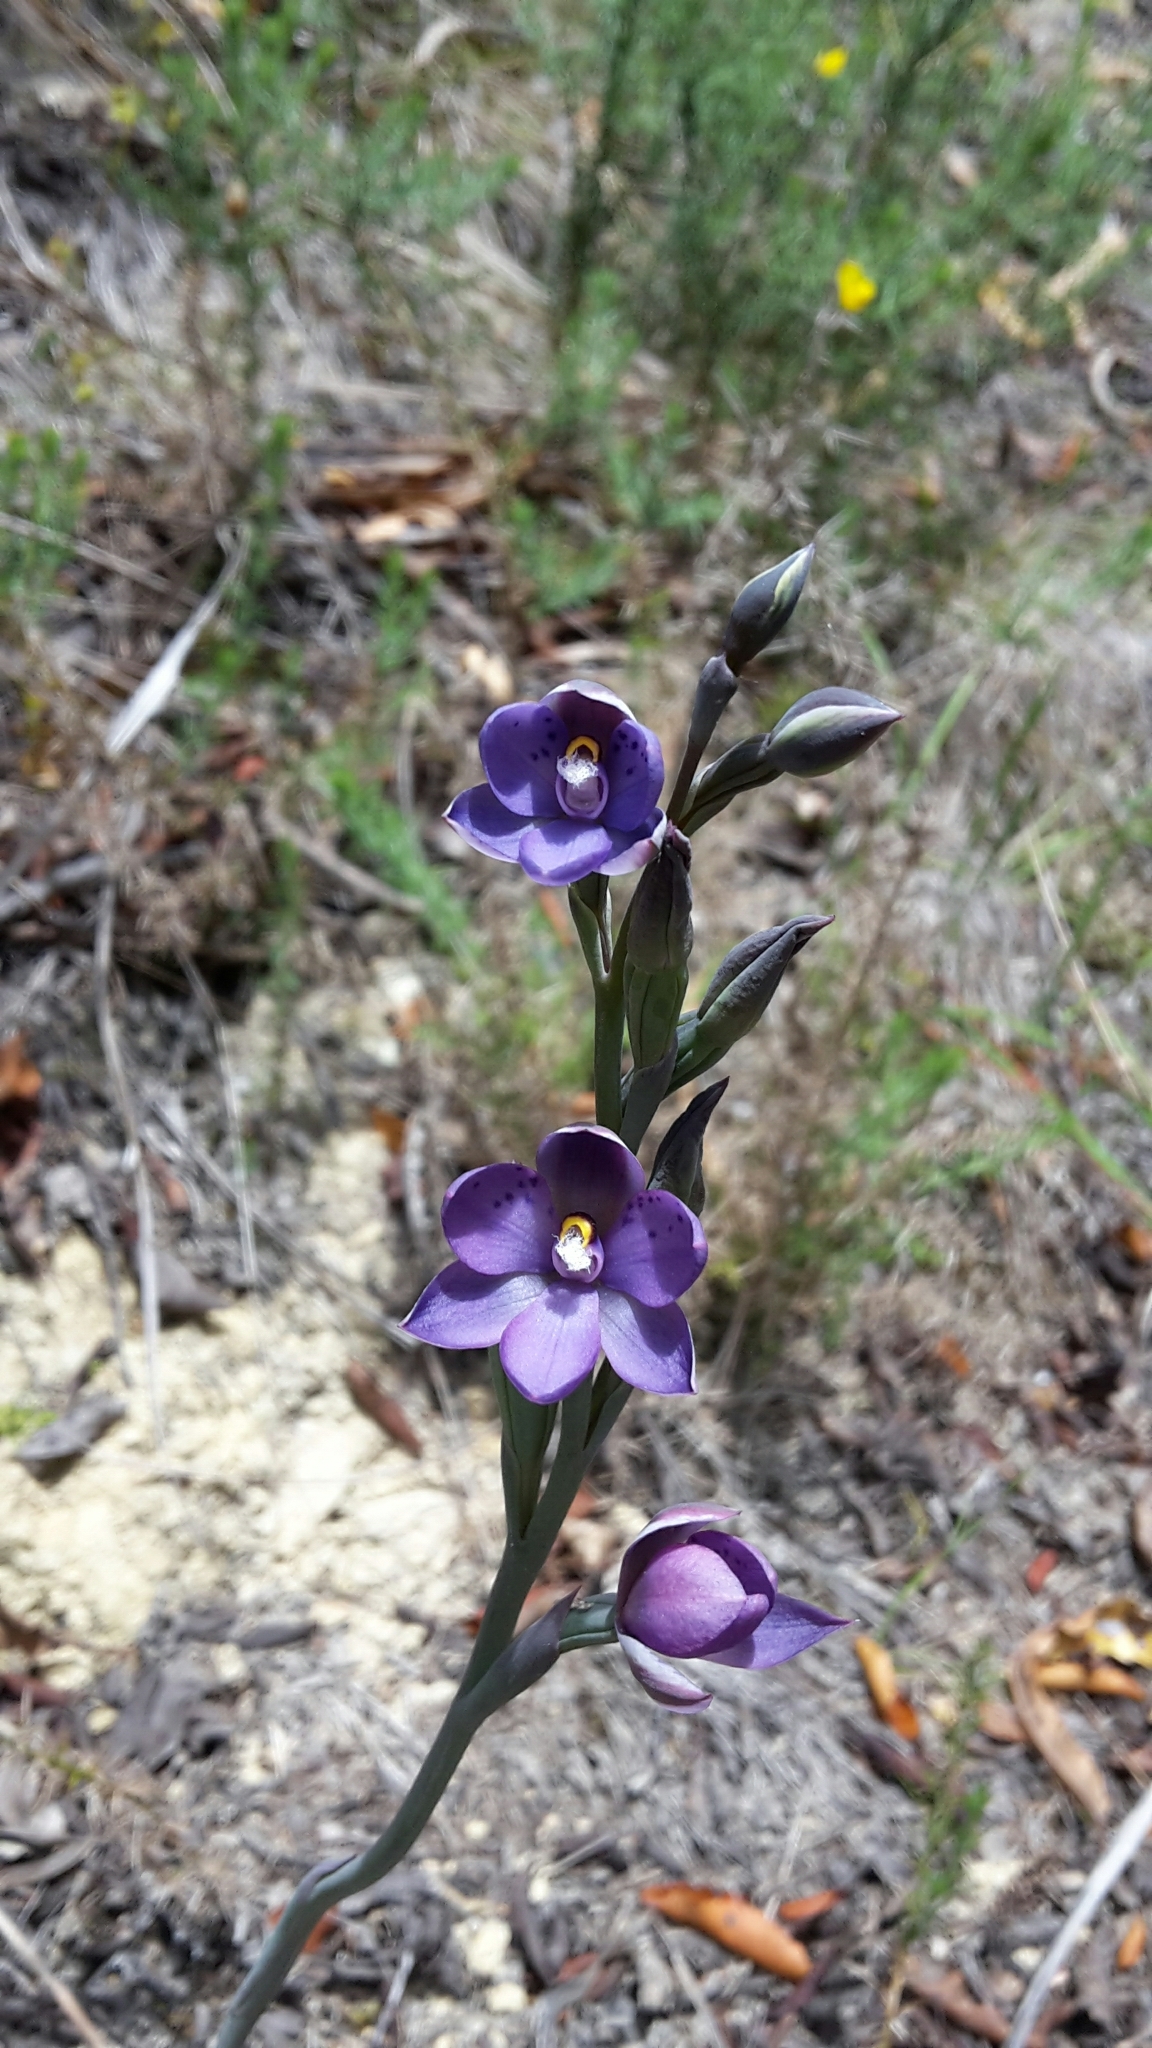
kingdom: Plantae
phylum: Tracheophyta
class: Liliopsida
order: Asparagales
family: Orchidaceae
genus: Thelymitra
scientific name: Thelymitra nervosa
